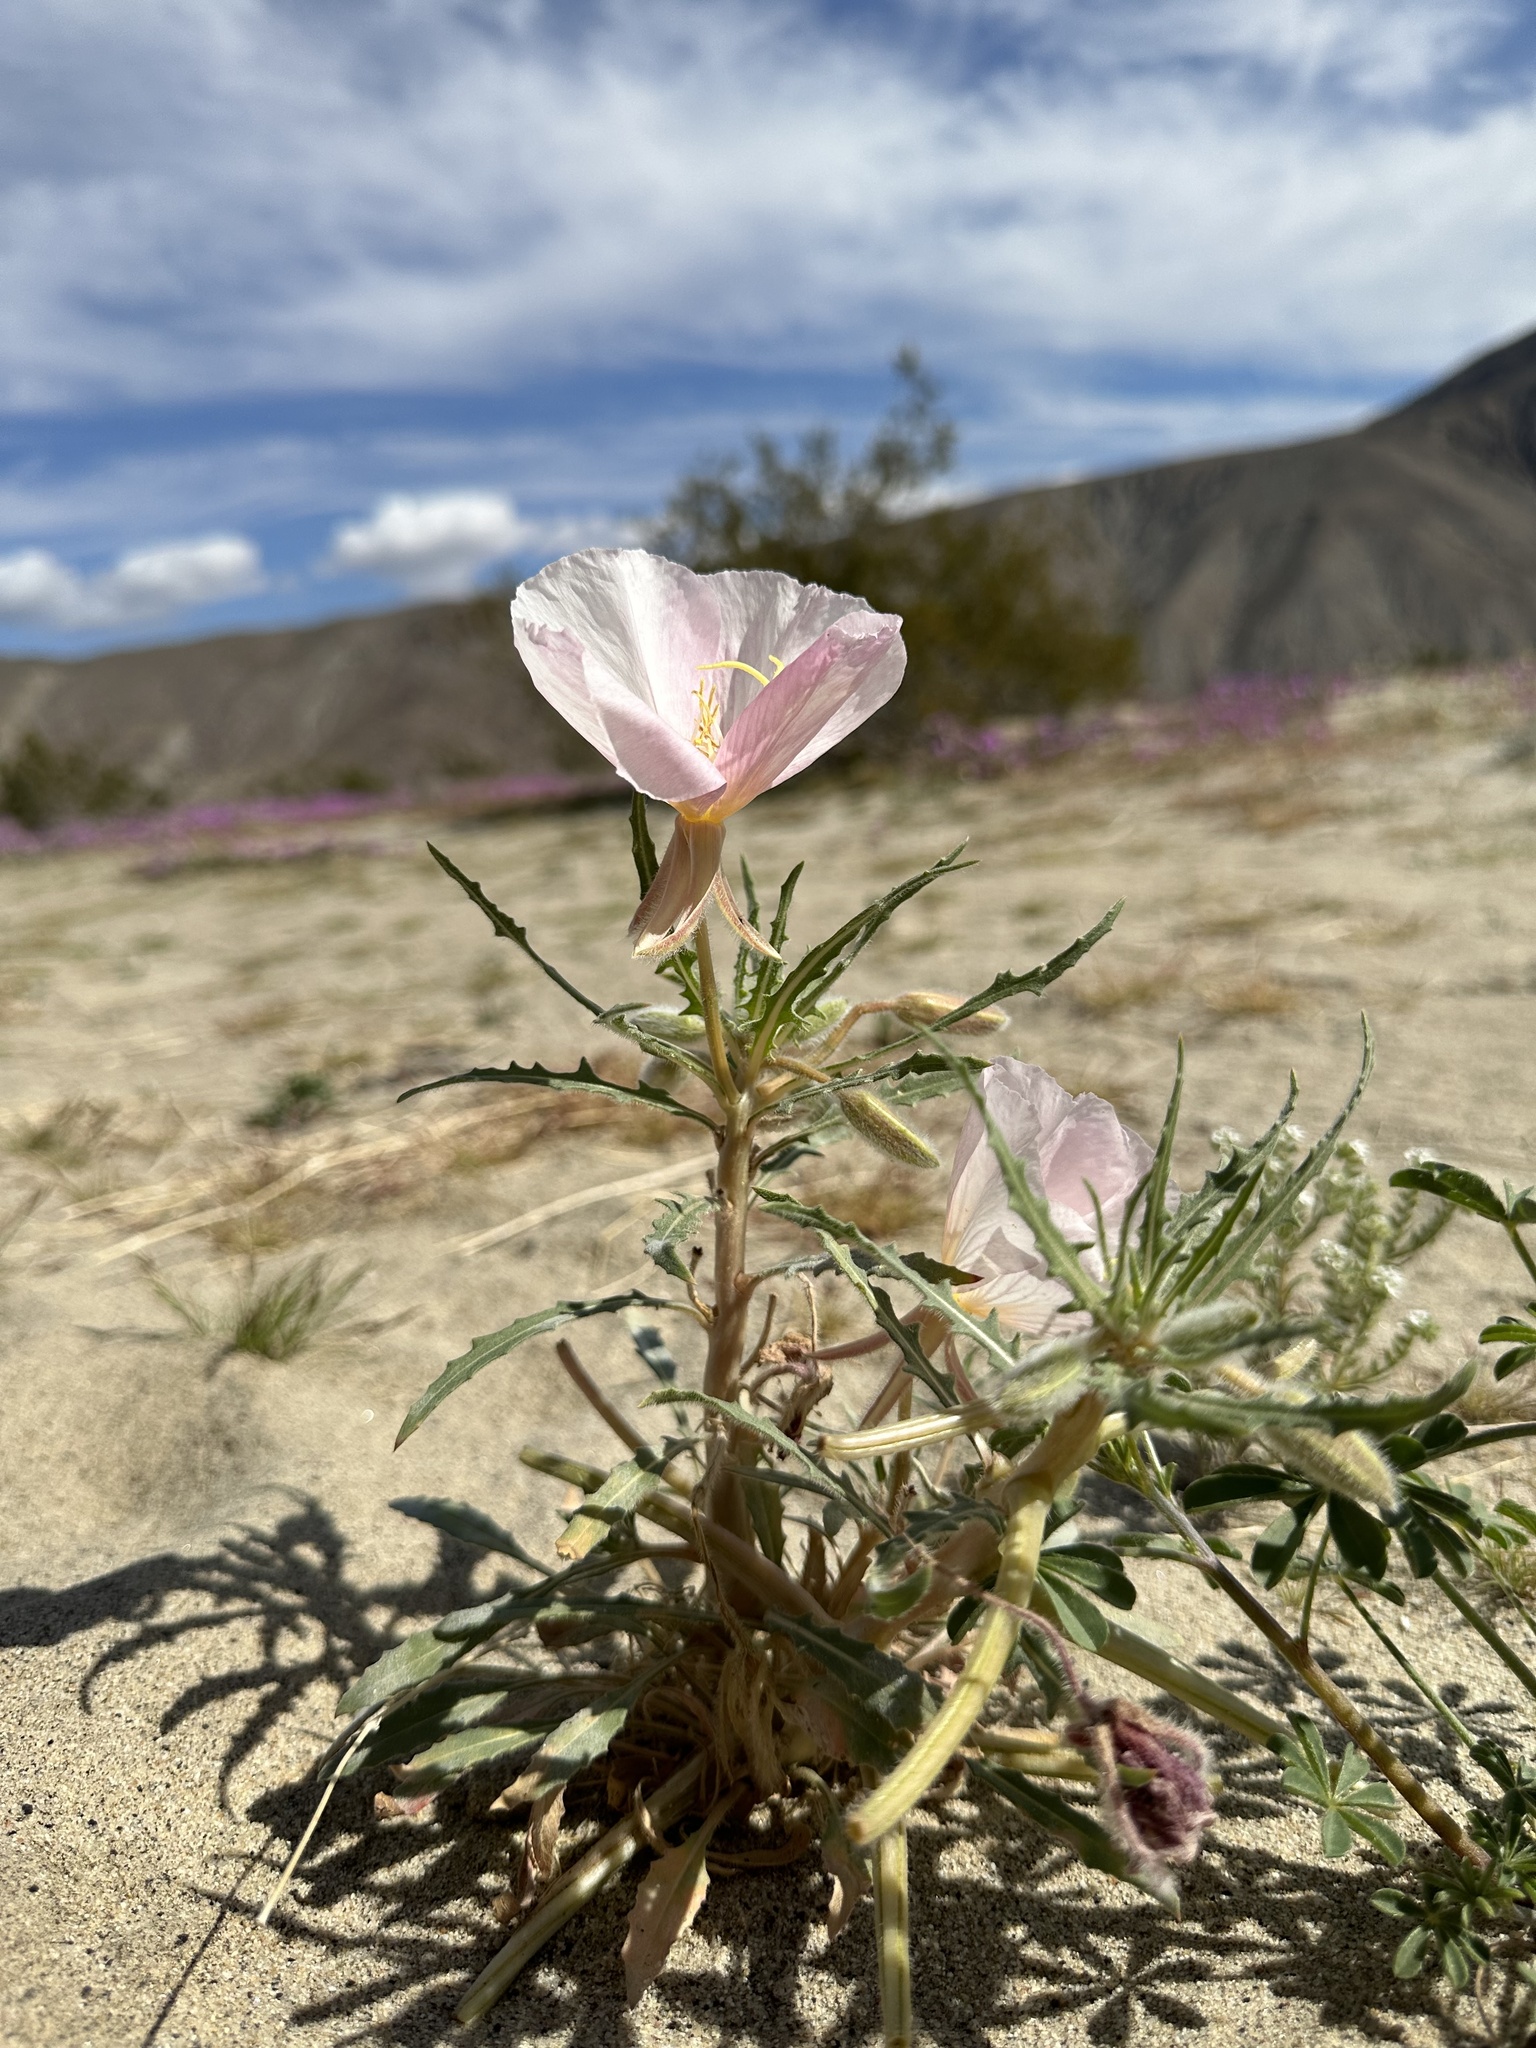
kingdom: Plantae
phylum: Tracheophyta
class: Magnoliopsida
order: Myrtales
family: Onagraceae
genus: Oenothera
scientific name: Oenothera deltoides
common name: Basket evening-primrose
